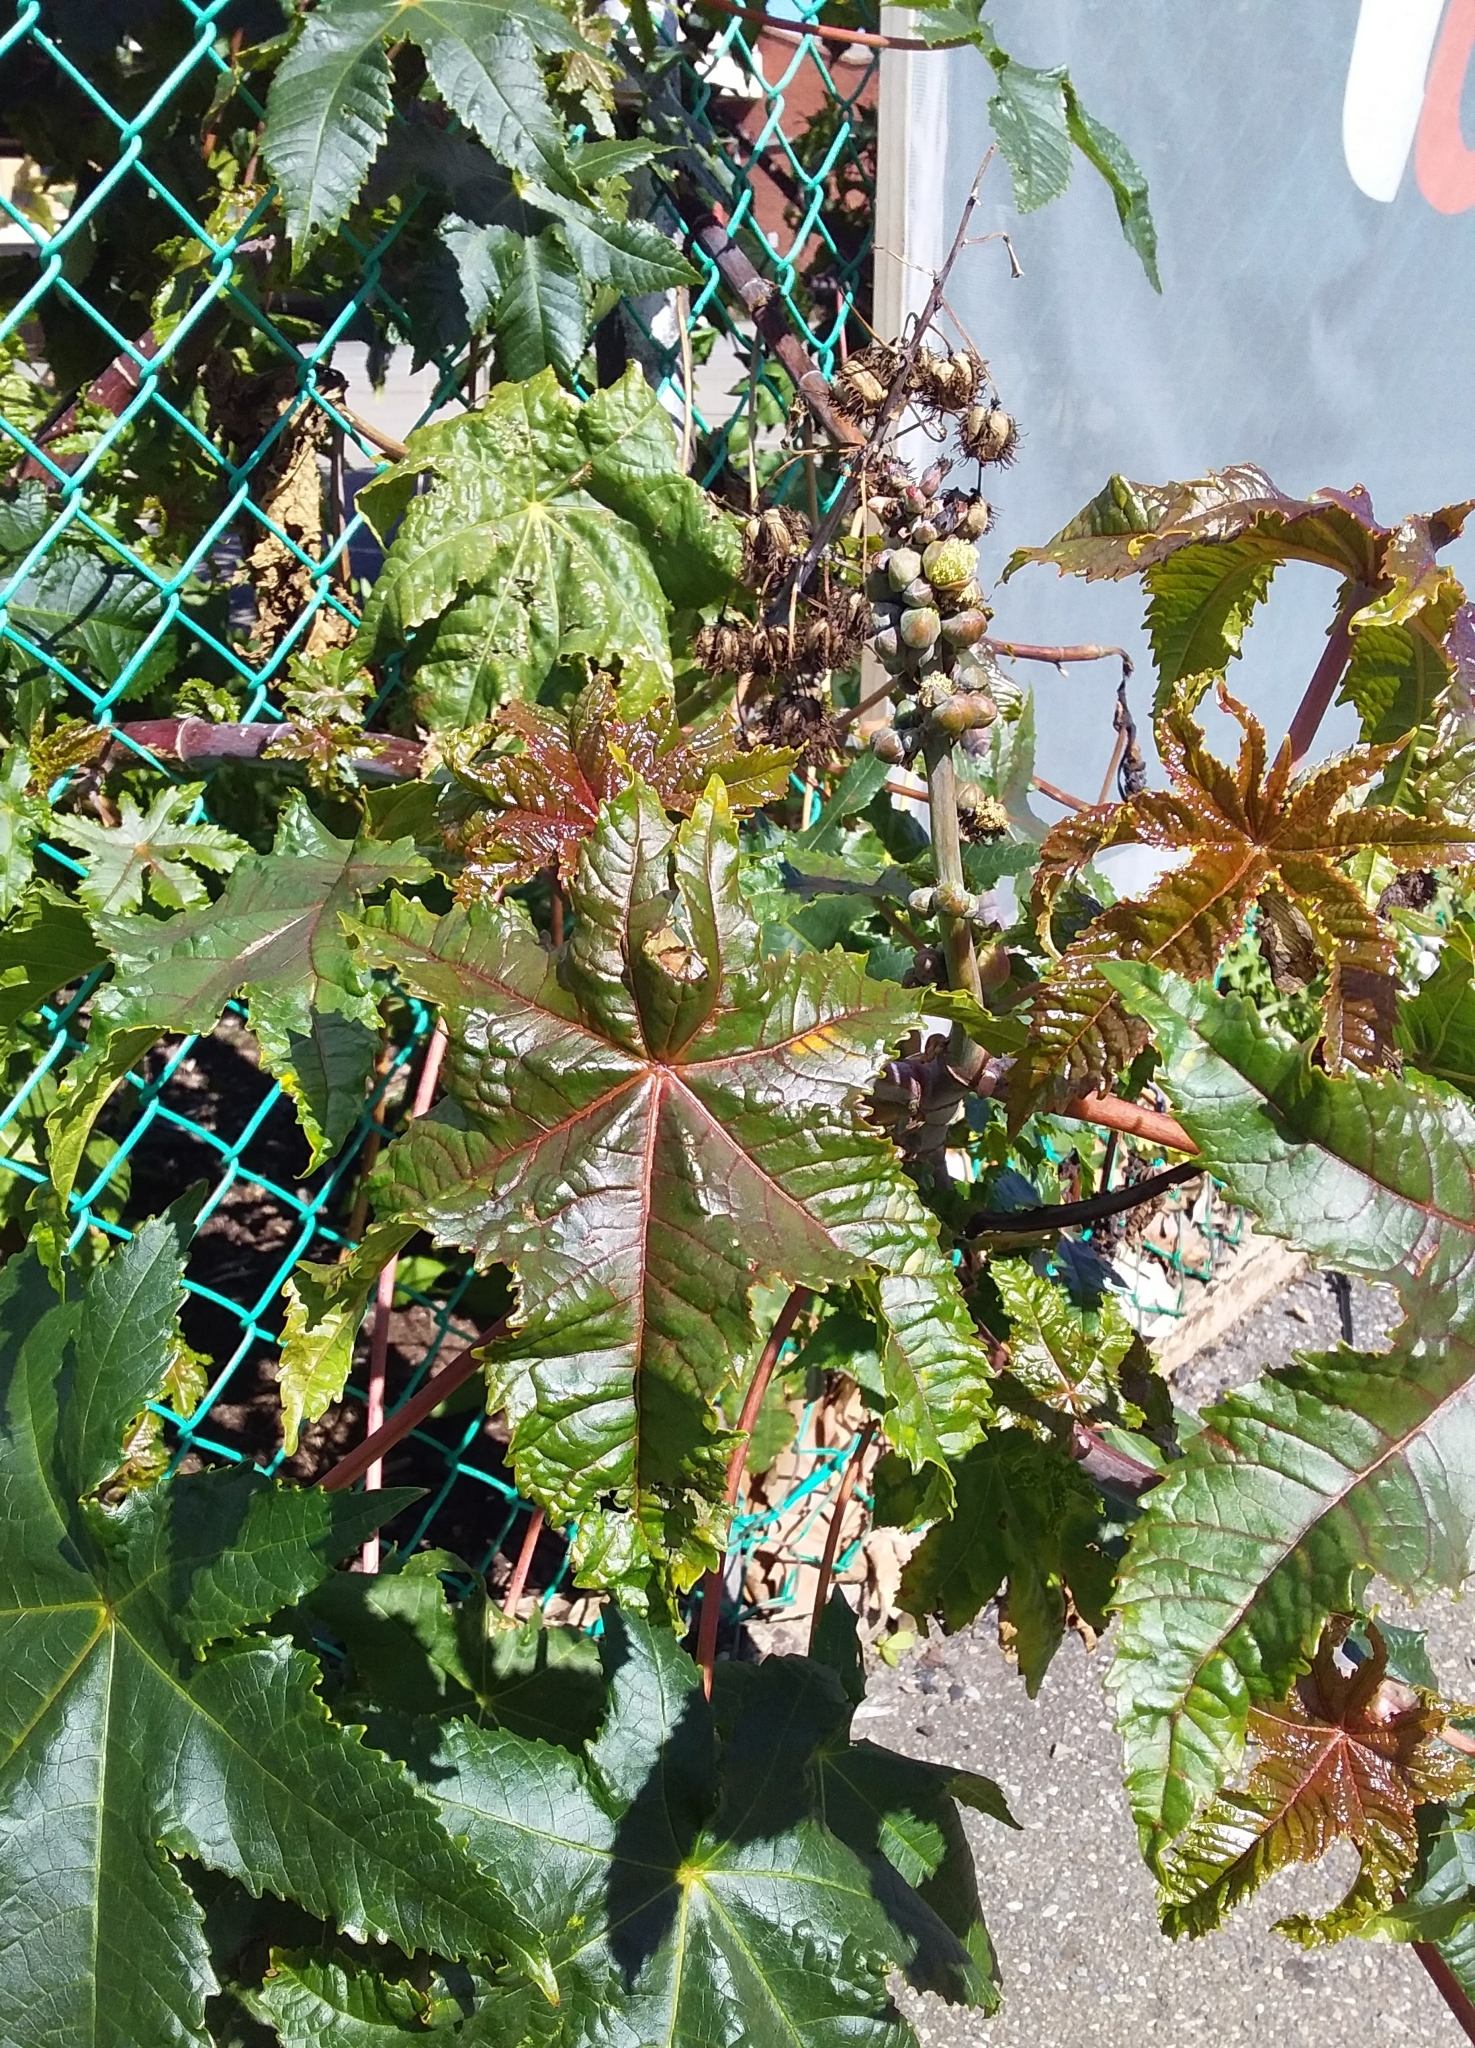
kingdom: Plantae
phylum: Tracheophyta
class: Magnoliopsida
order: Malpighiales
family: Euphorbiaceae
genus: Ricinus
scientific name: Ricinus communis
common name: Castor-oil-plant
